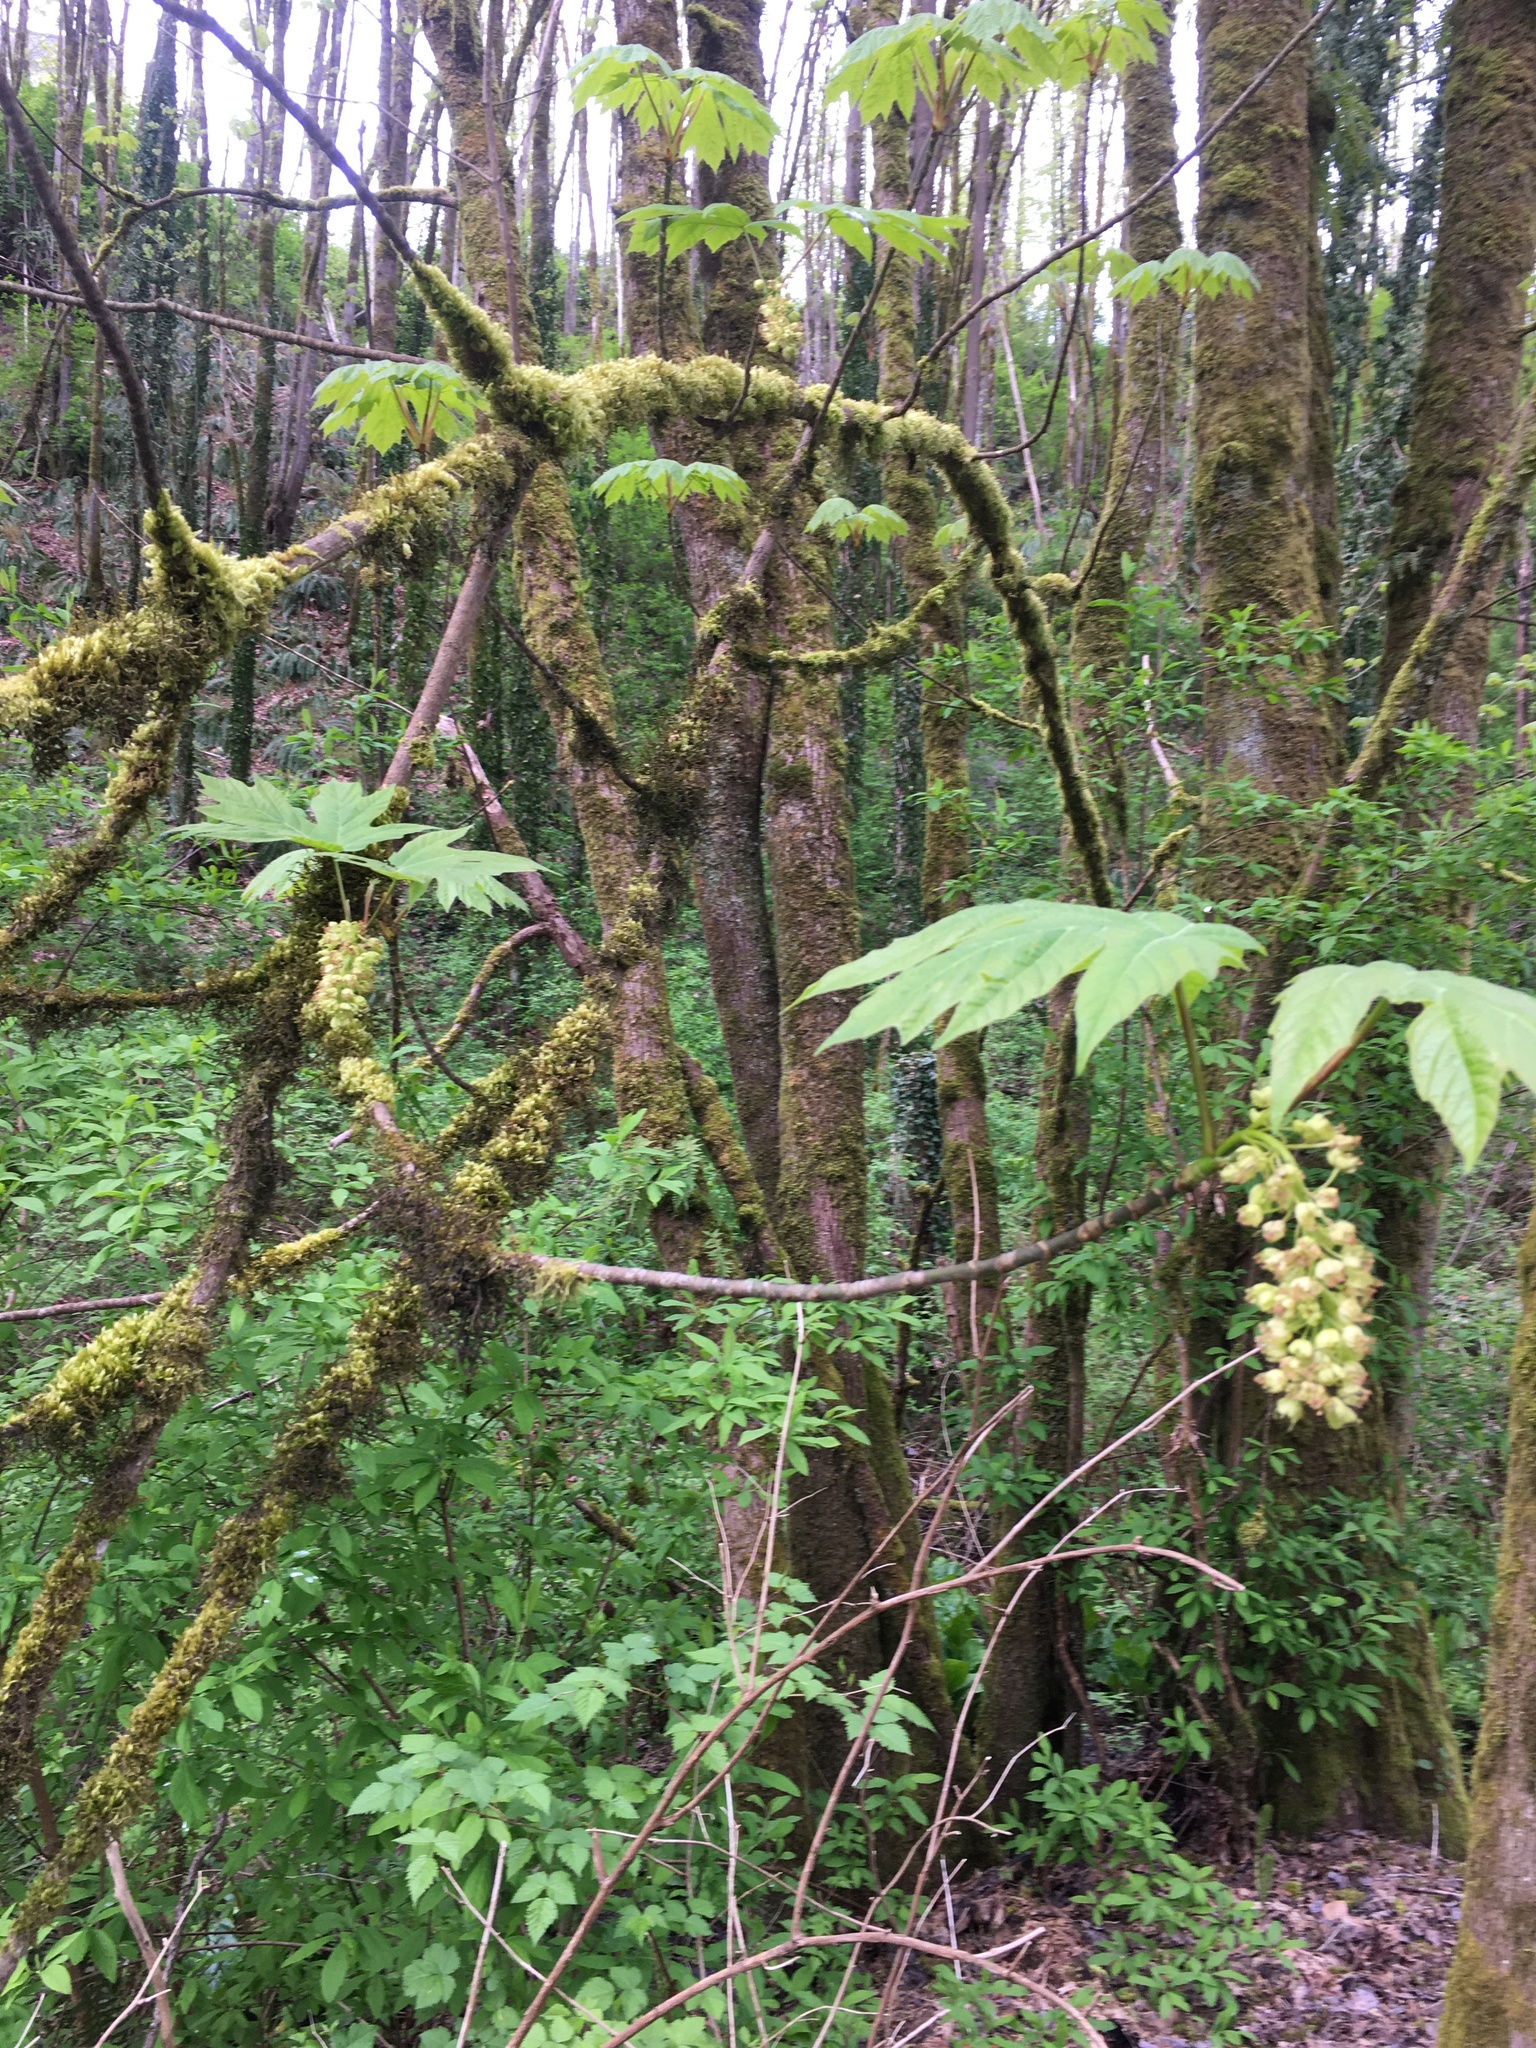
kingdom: Plantae
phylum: Tracheophyta
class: Magnoliopsida
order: Sapindales
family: Sapindaceae
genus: Acer
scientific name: Acer macrophyllum
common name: Oregon maple
